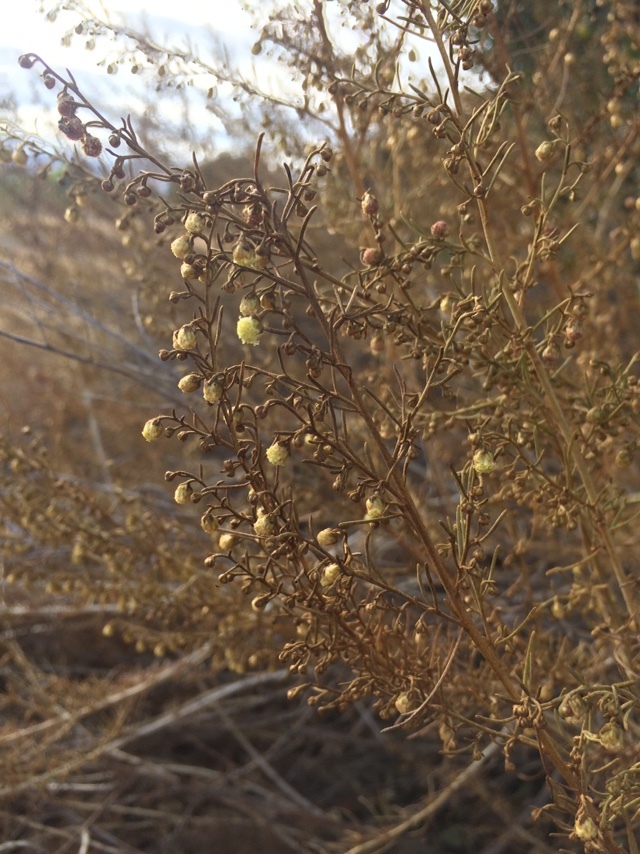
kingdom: Plantae
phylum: Tracheophyta
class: Magnoliopsida
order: Asterales
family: Asteraceae
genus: Artemisia
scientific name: Artemisia californica
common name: California sagebrush
